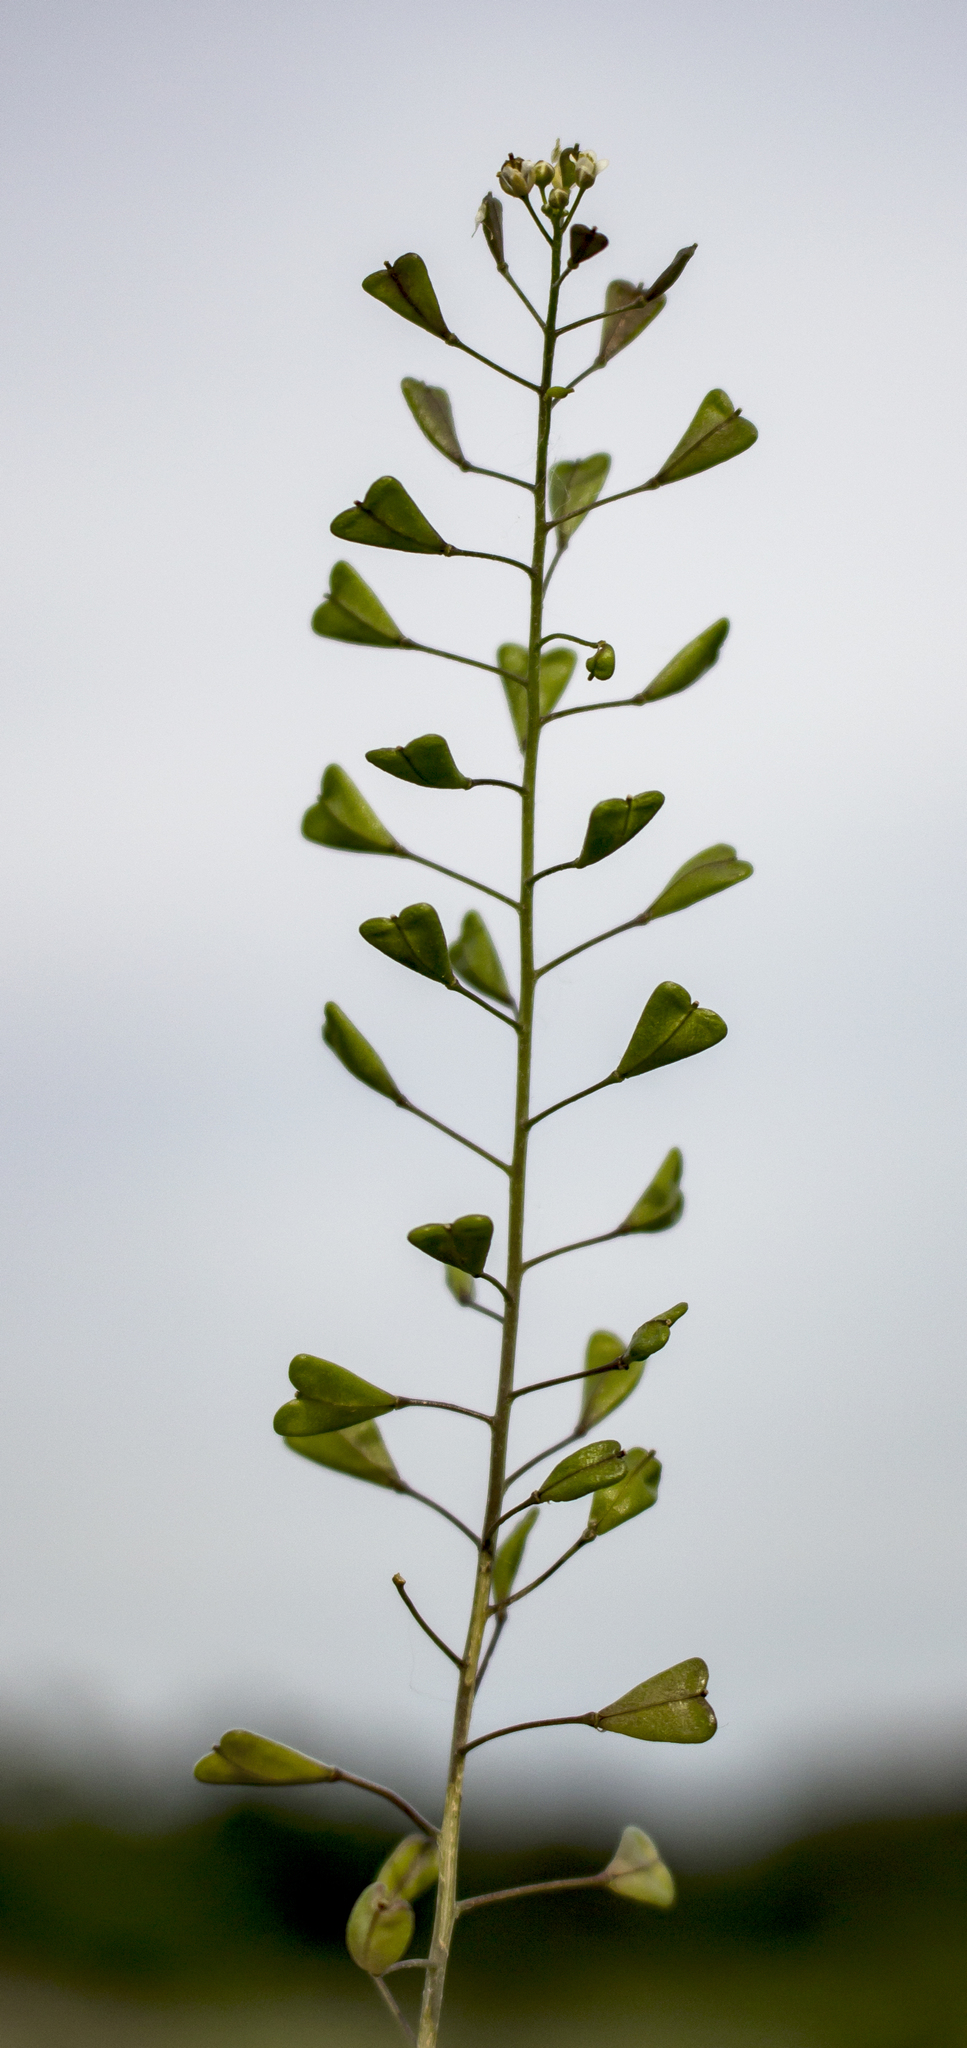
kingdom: Plantae
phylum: Tracheophyta
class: Magnoliopsida
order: Brassicales
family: Brassicaceae
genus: Capsella
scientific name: Capsella bursa-pastoris
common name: Shepherd's purse
